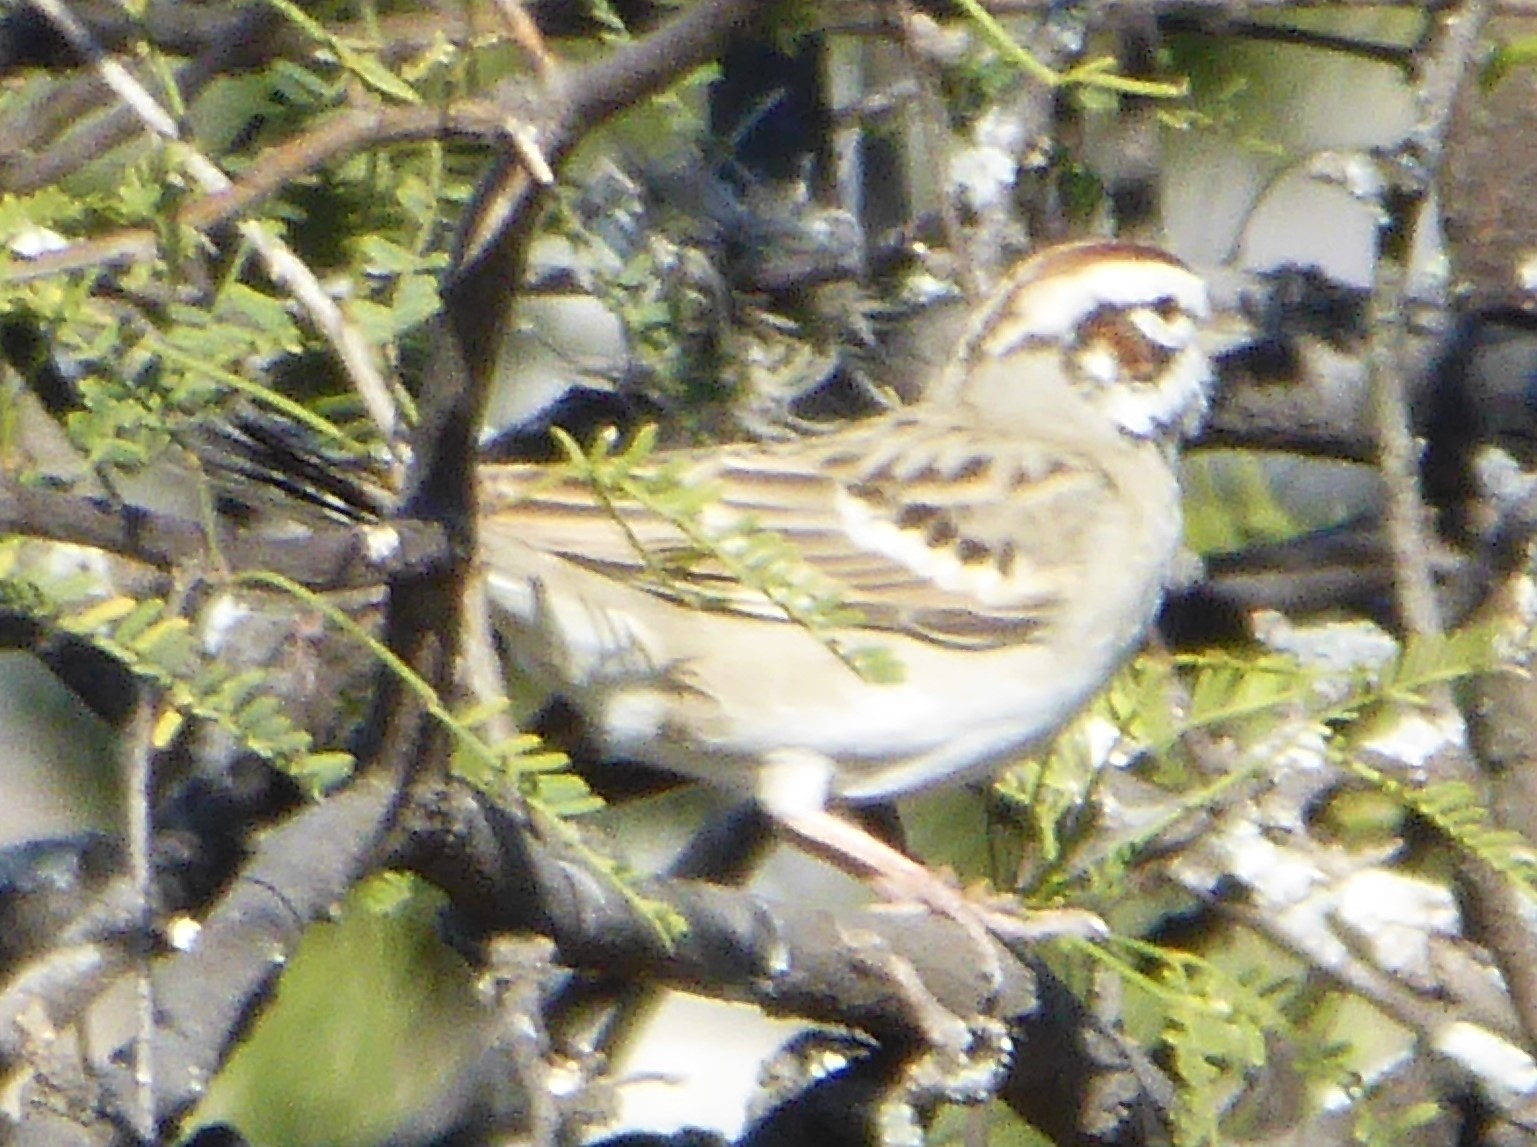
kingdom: Animalia
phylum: Chordata
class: Aves
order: Passeriformes
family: Passerellidae
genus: Chondestes
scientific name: Chondestes grammacus
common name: Lark sparrow
